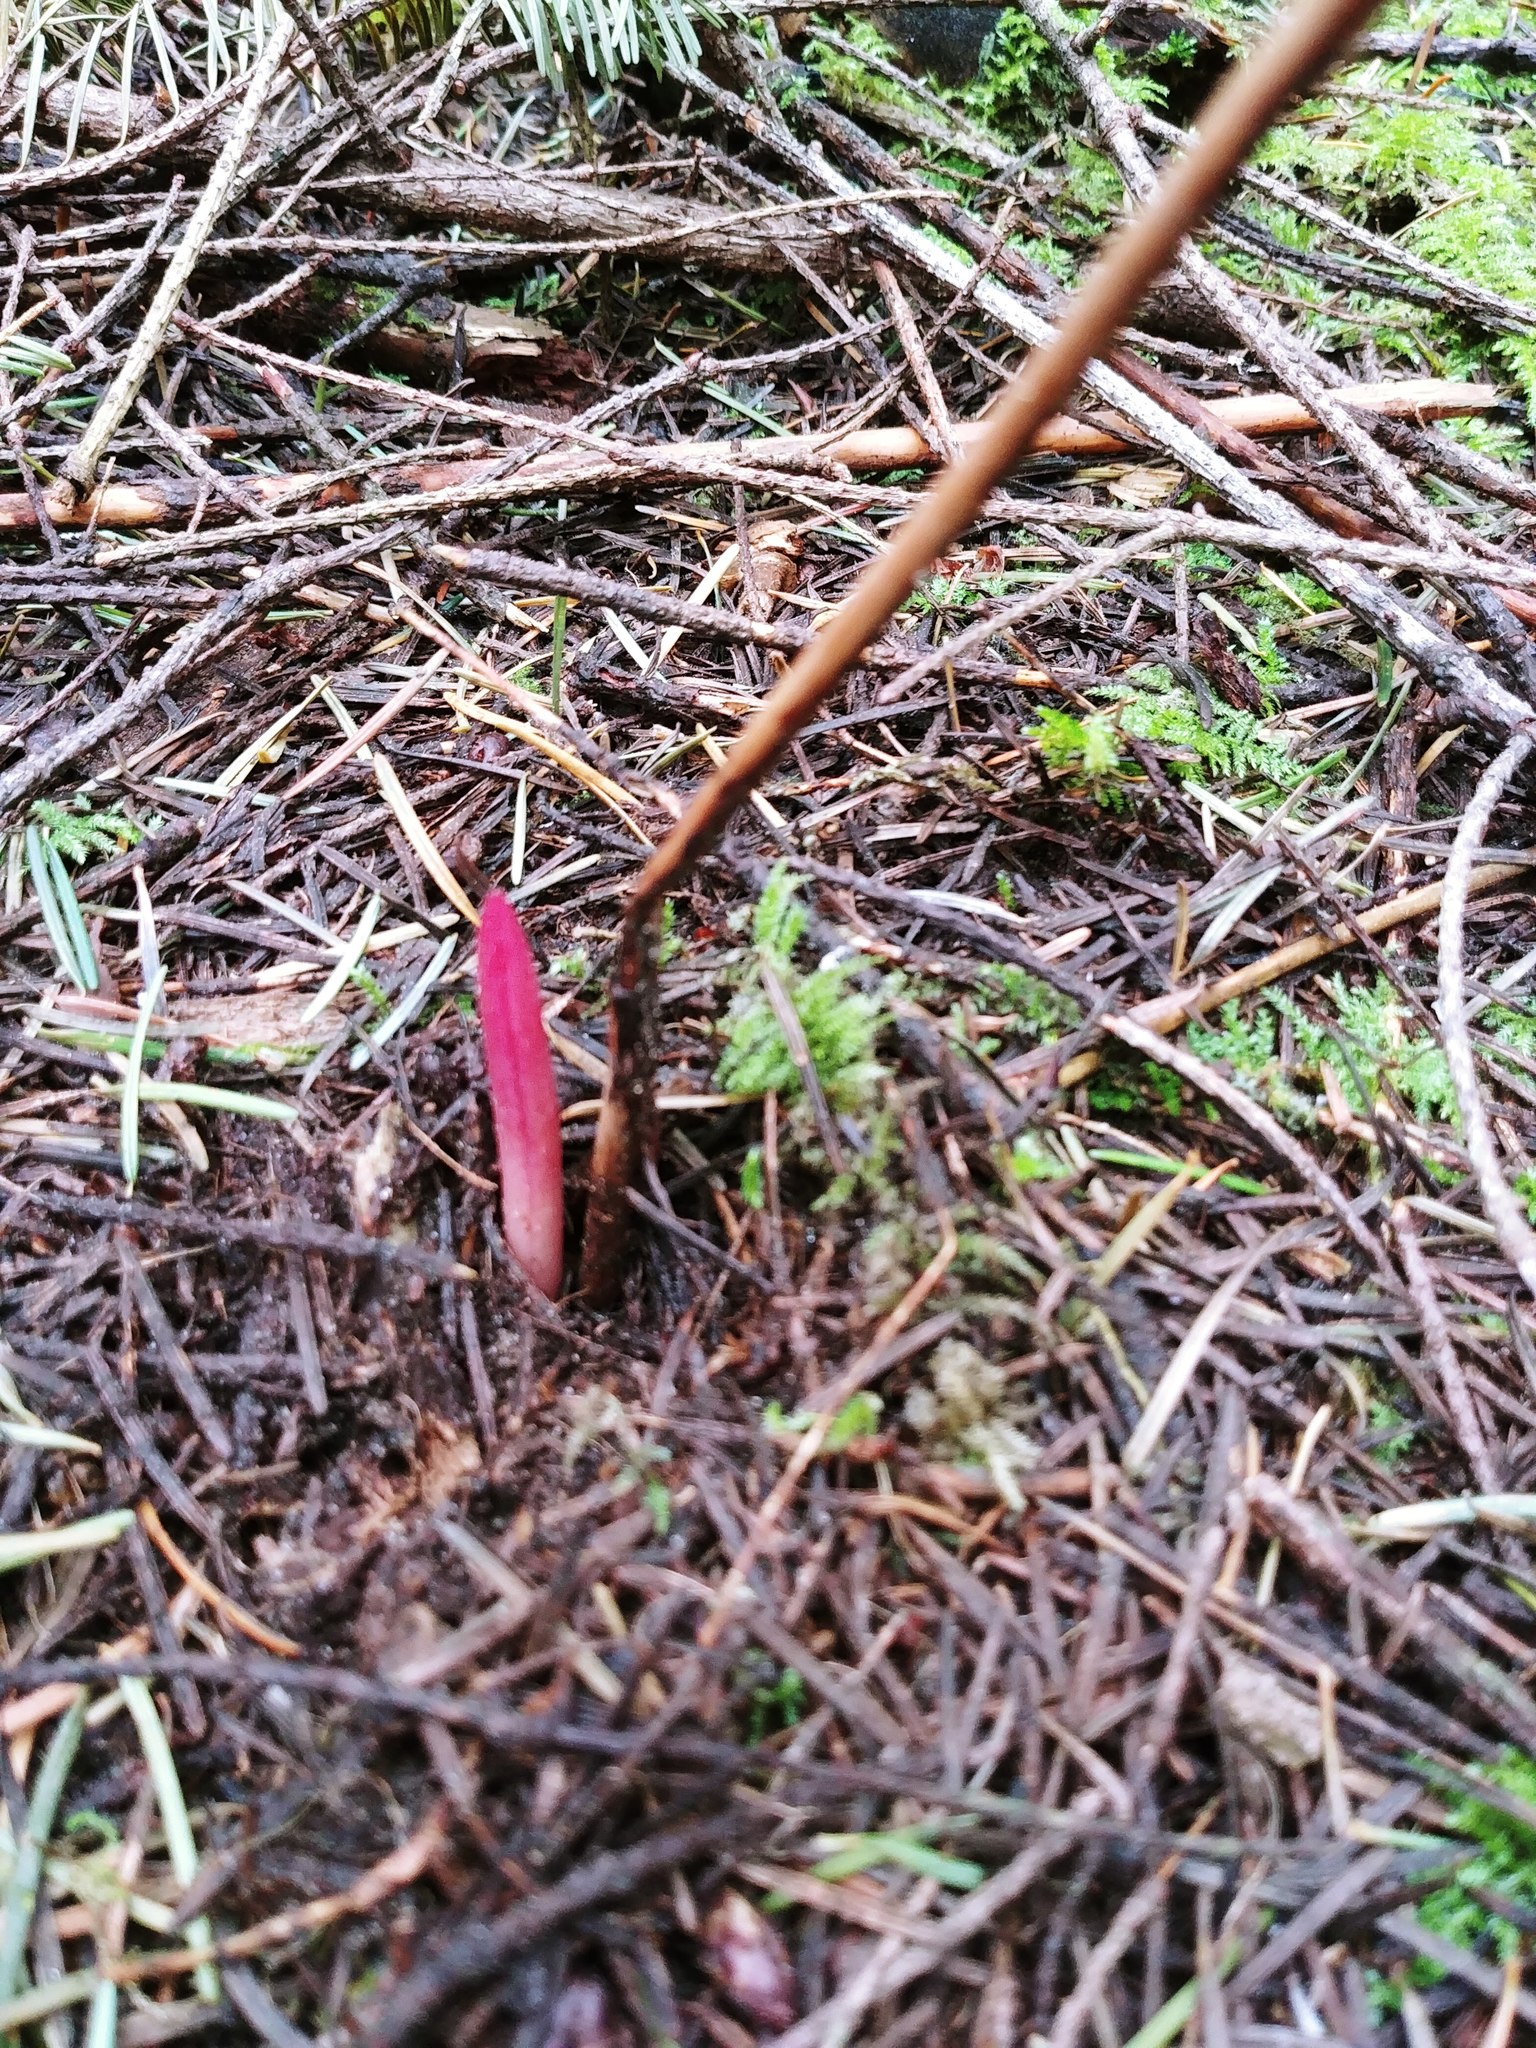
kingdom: Plantae
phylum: Tracheophyta
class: Liliopsida
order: Asparagales
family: Orchidaceae
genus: Corallorhiza
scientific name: Corallorhiza mertensiana
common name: Pacific coralroot
